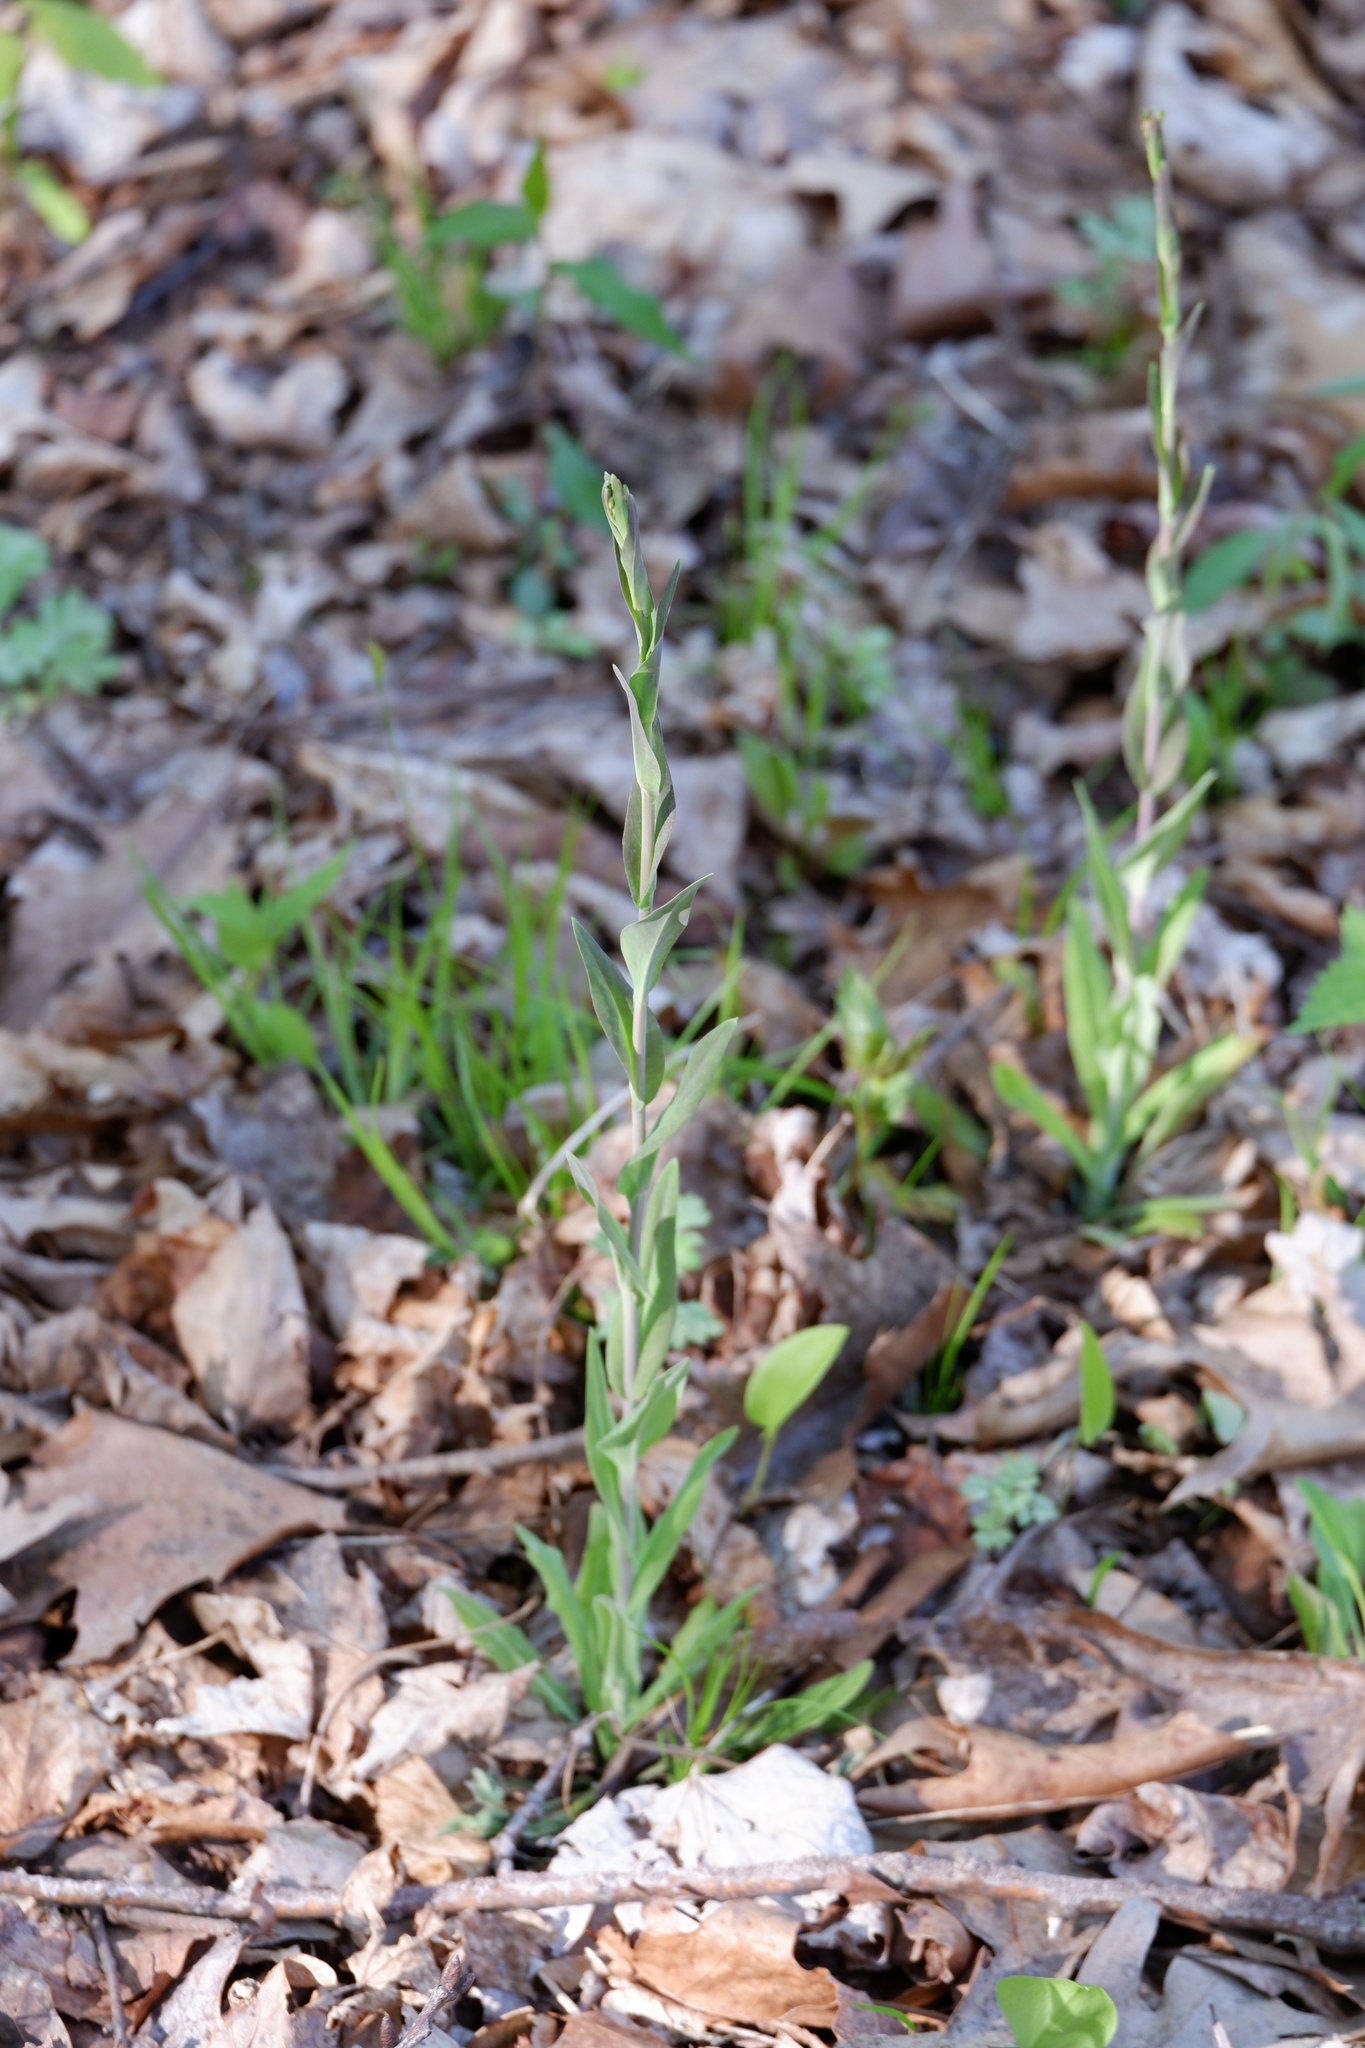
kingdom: Plantae
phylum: Tracheophyta
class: Magnoliopsida
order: Brassicales
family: Brassicaceae
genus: Turritis
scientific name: Turritis glabra
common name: Tower rockcress
